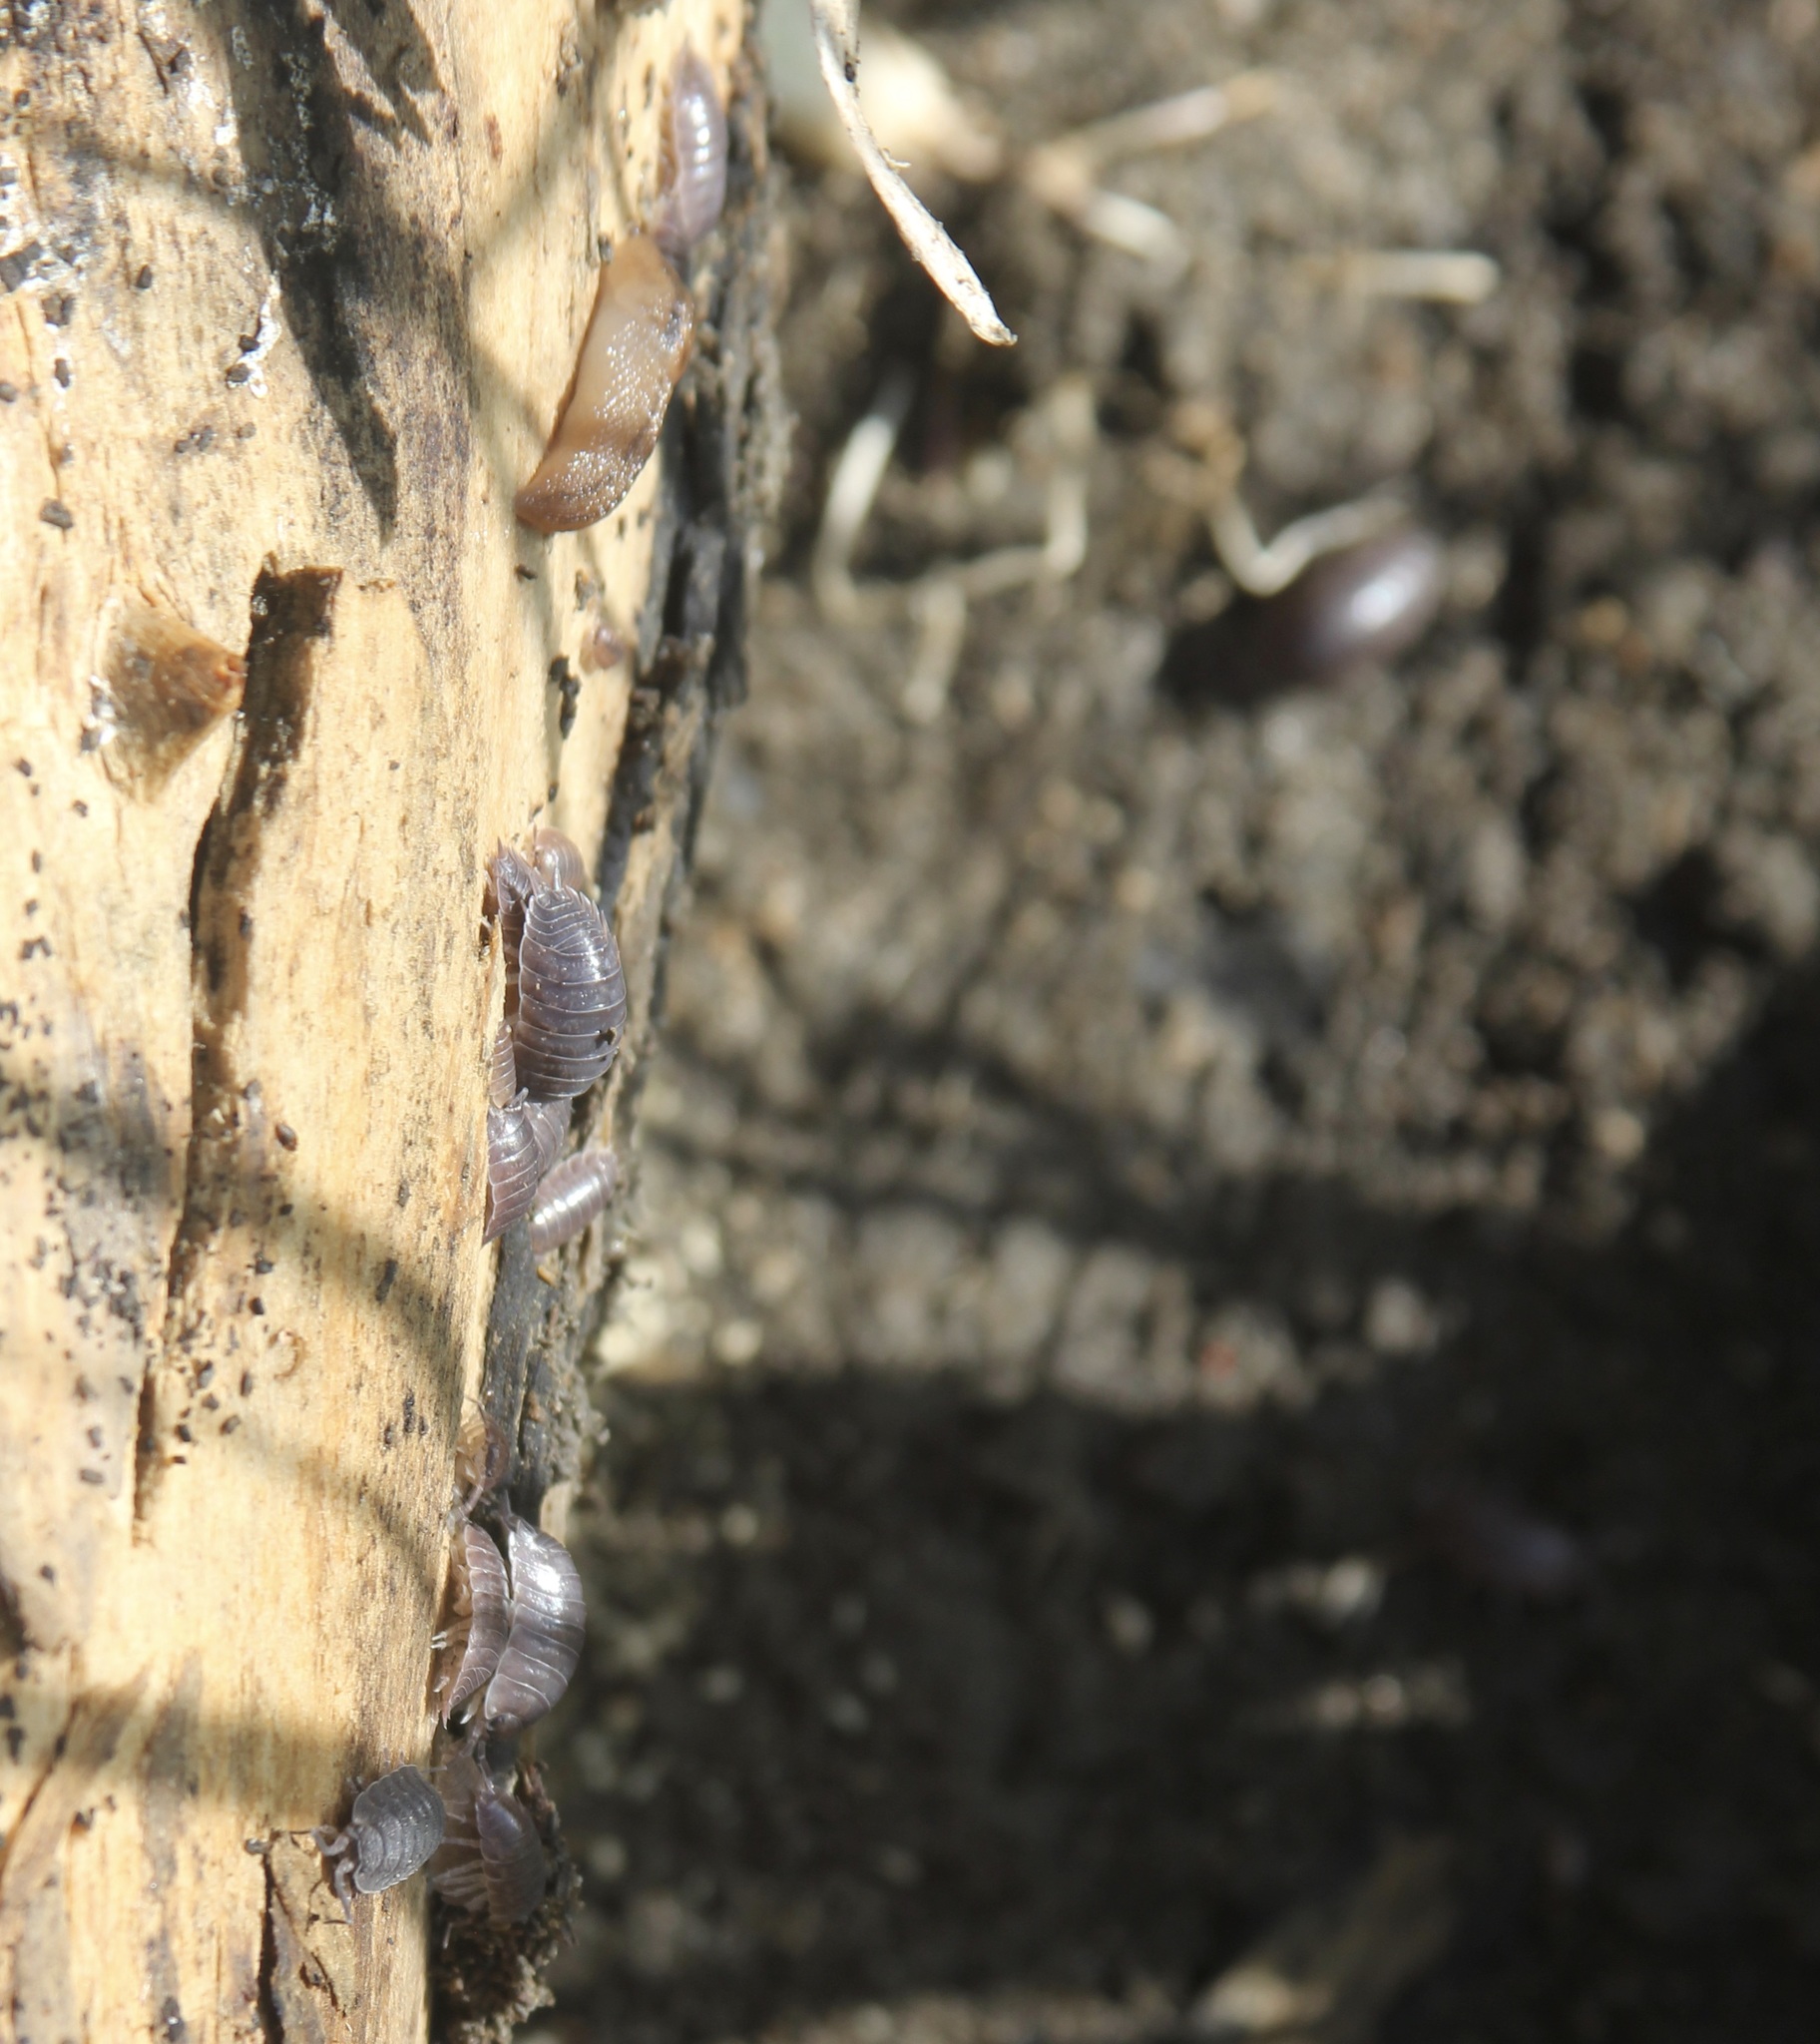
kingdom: Animalia
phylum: Arthropoda
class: Malacostraca
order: Isopoda
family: Porcellionidae
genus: Porcellio
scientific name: Porcellio laevis
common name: Swift woodlouse
